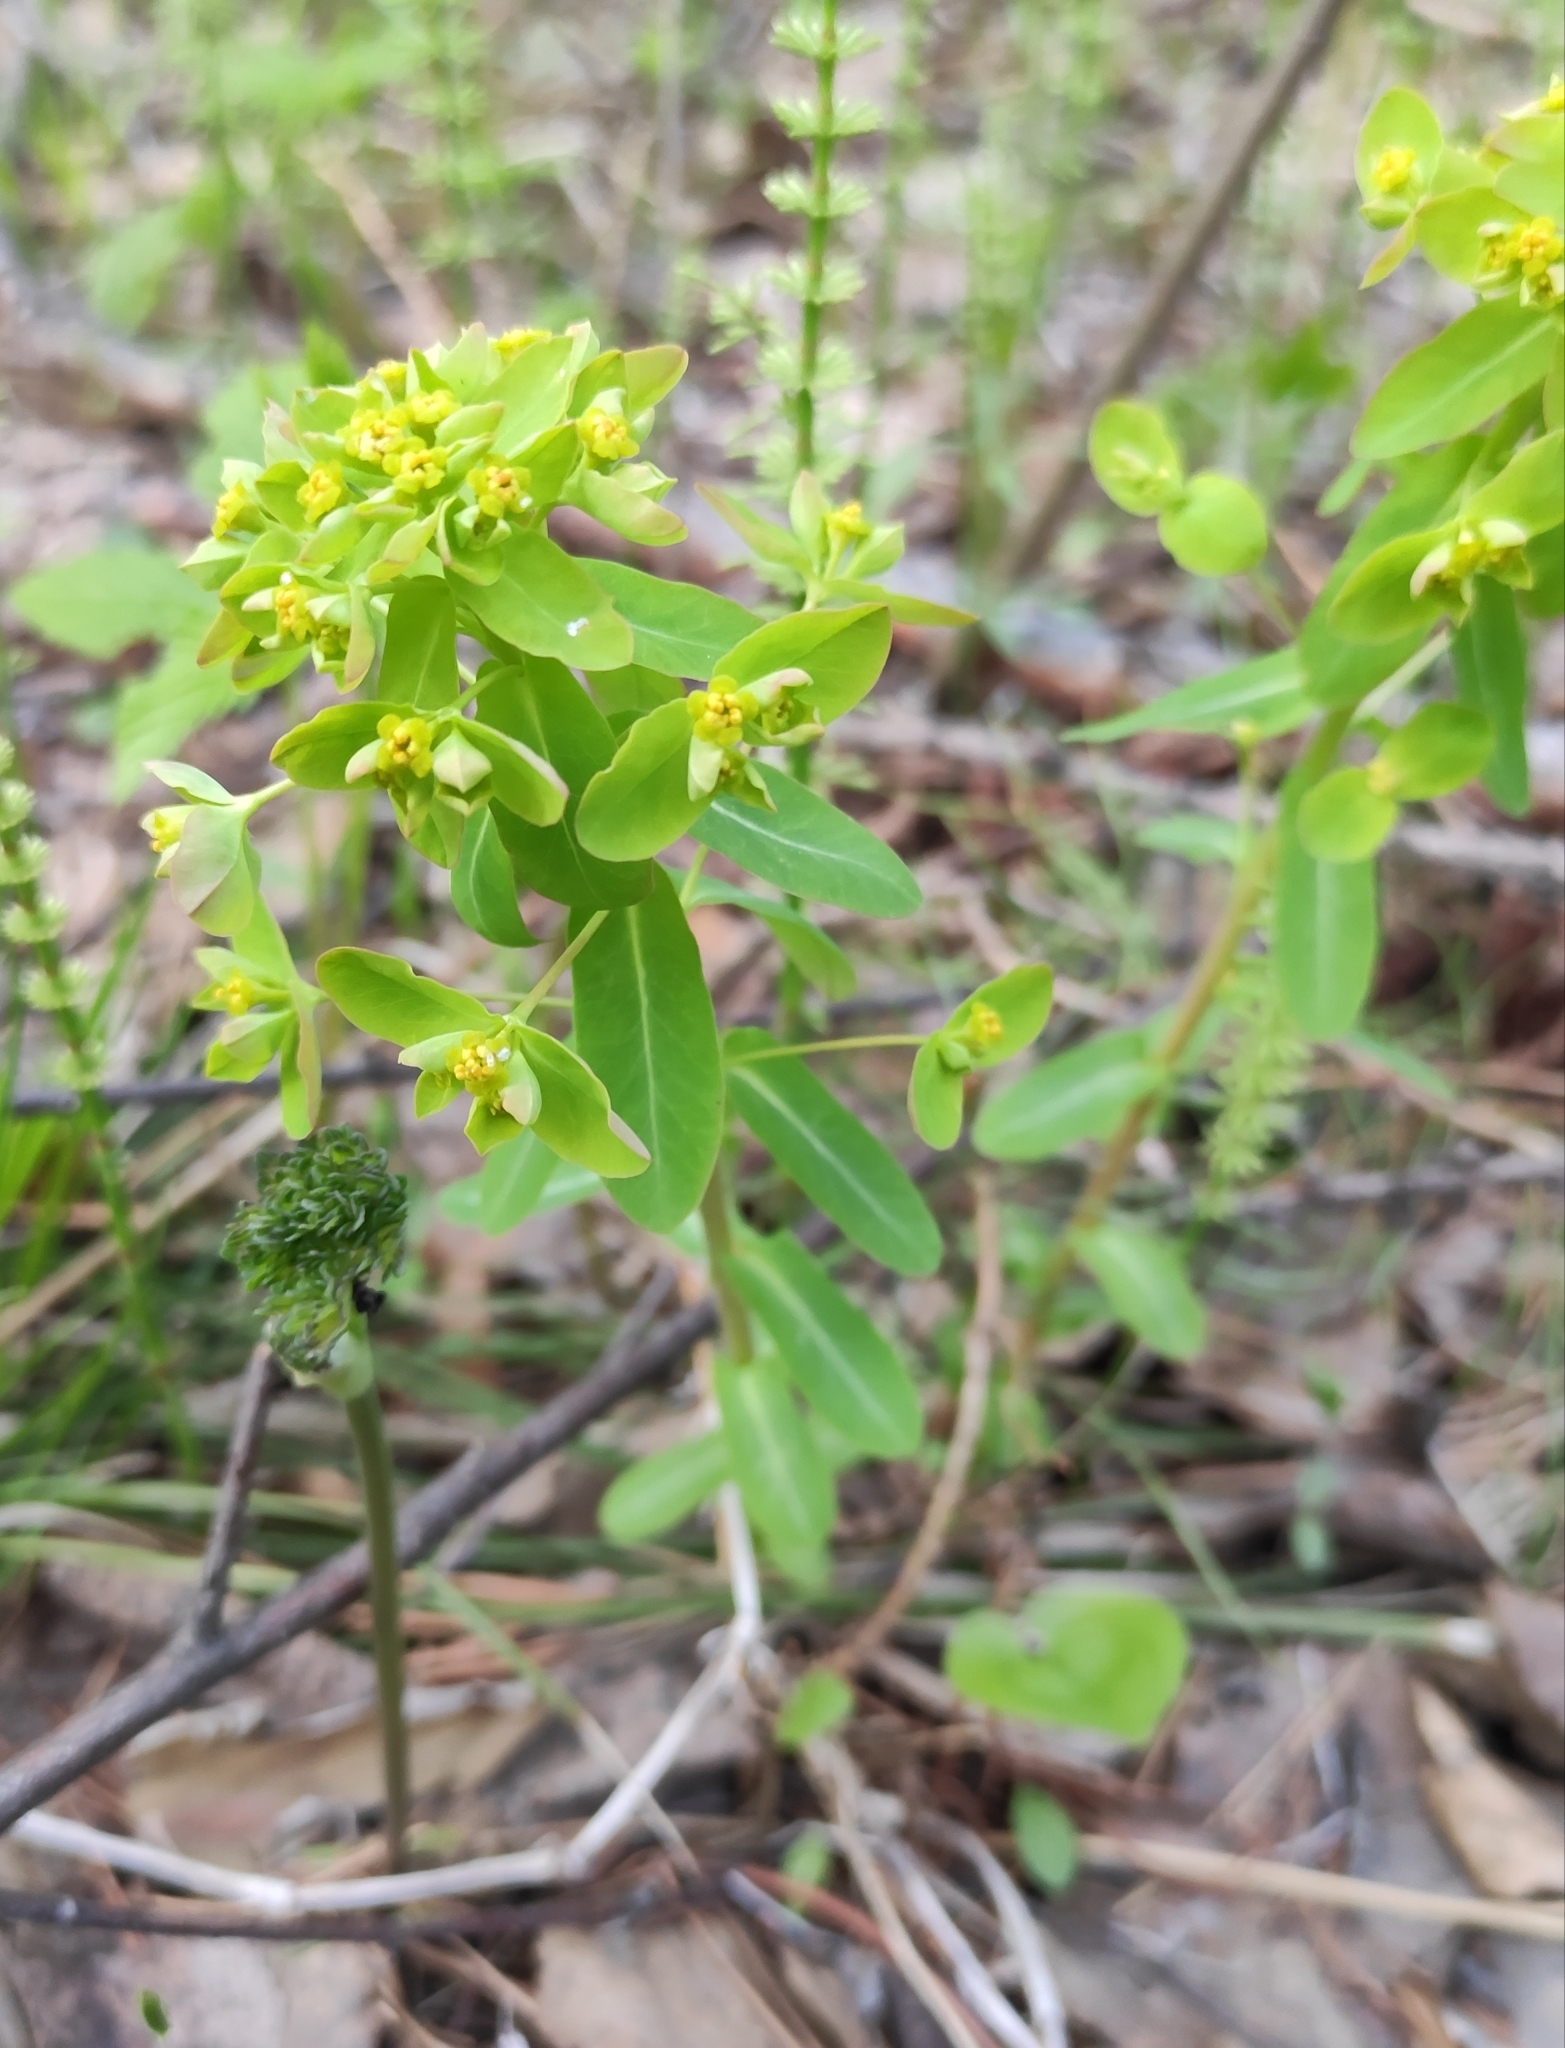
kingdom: Plantae
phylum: Tracheophyta
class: Magnoliopsida
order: Malpighiales
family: Euphorbiaceae
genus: Euphorbia
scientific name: Euphorbia jenisseiensis
